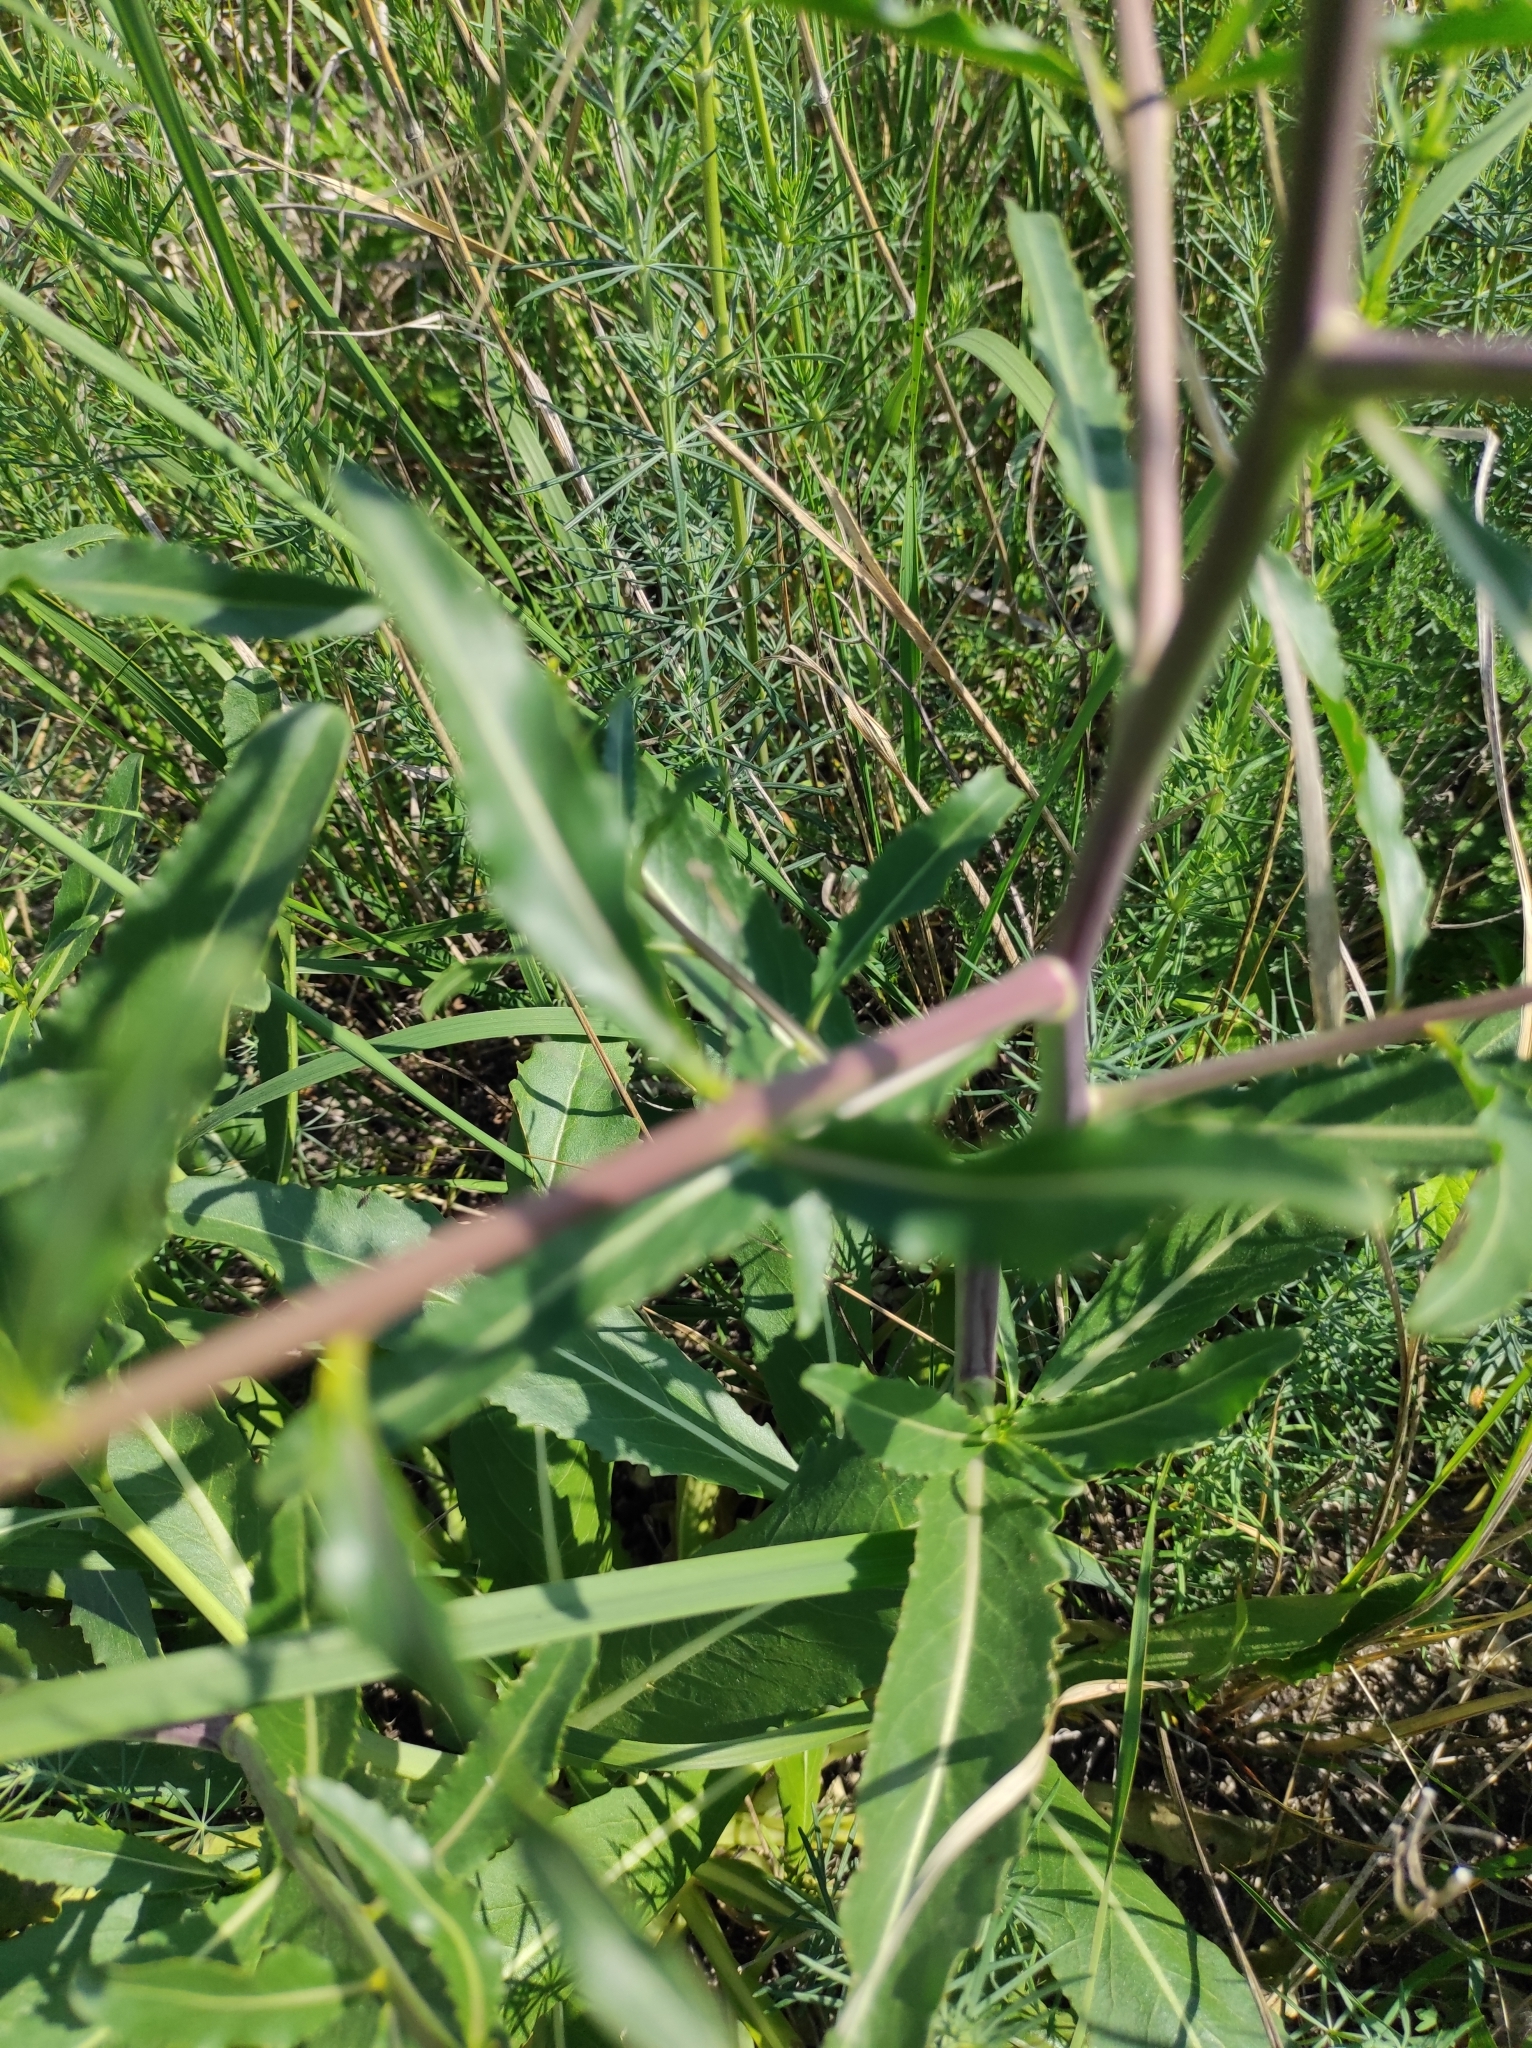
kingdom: Plantae
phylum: Tracheophyta
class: Magnoliopsida
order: Brassicales
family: Brassicaceae
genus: Brassica
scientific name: Brassica elongata
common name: Long-stalked rape
